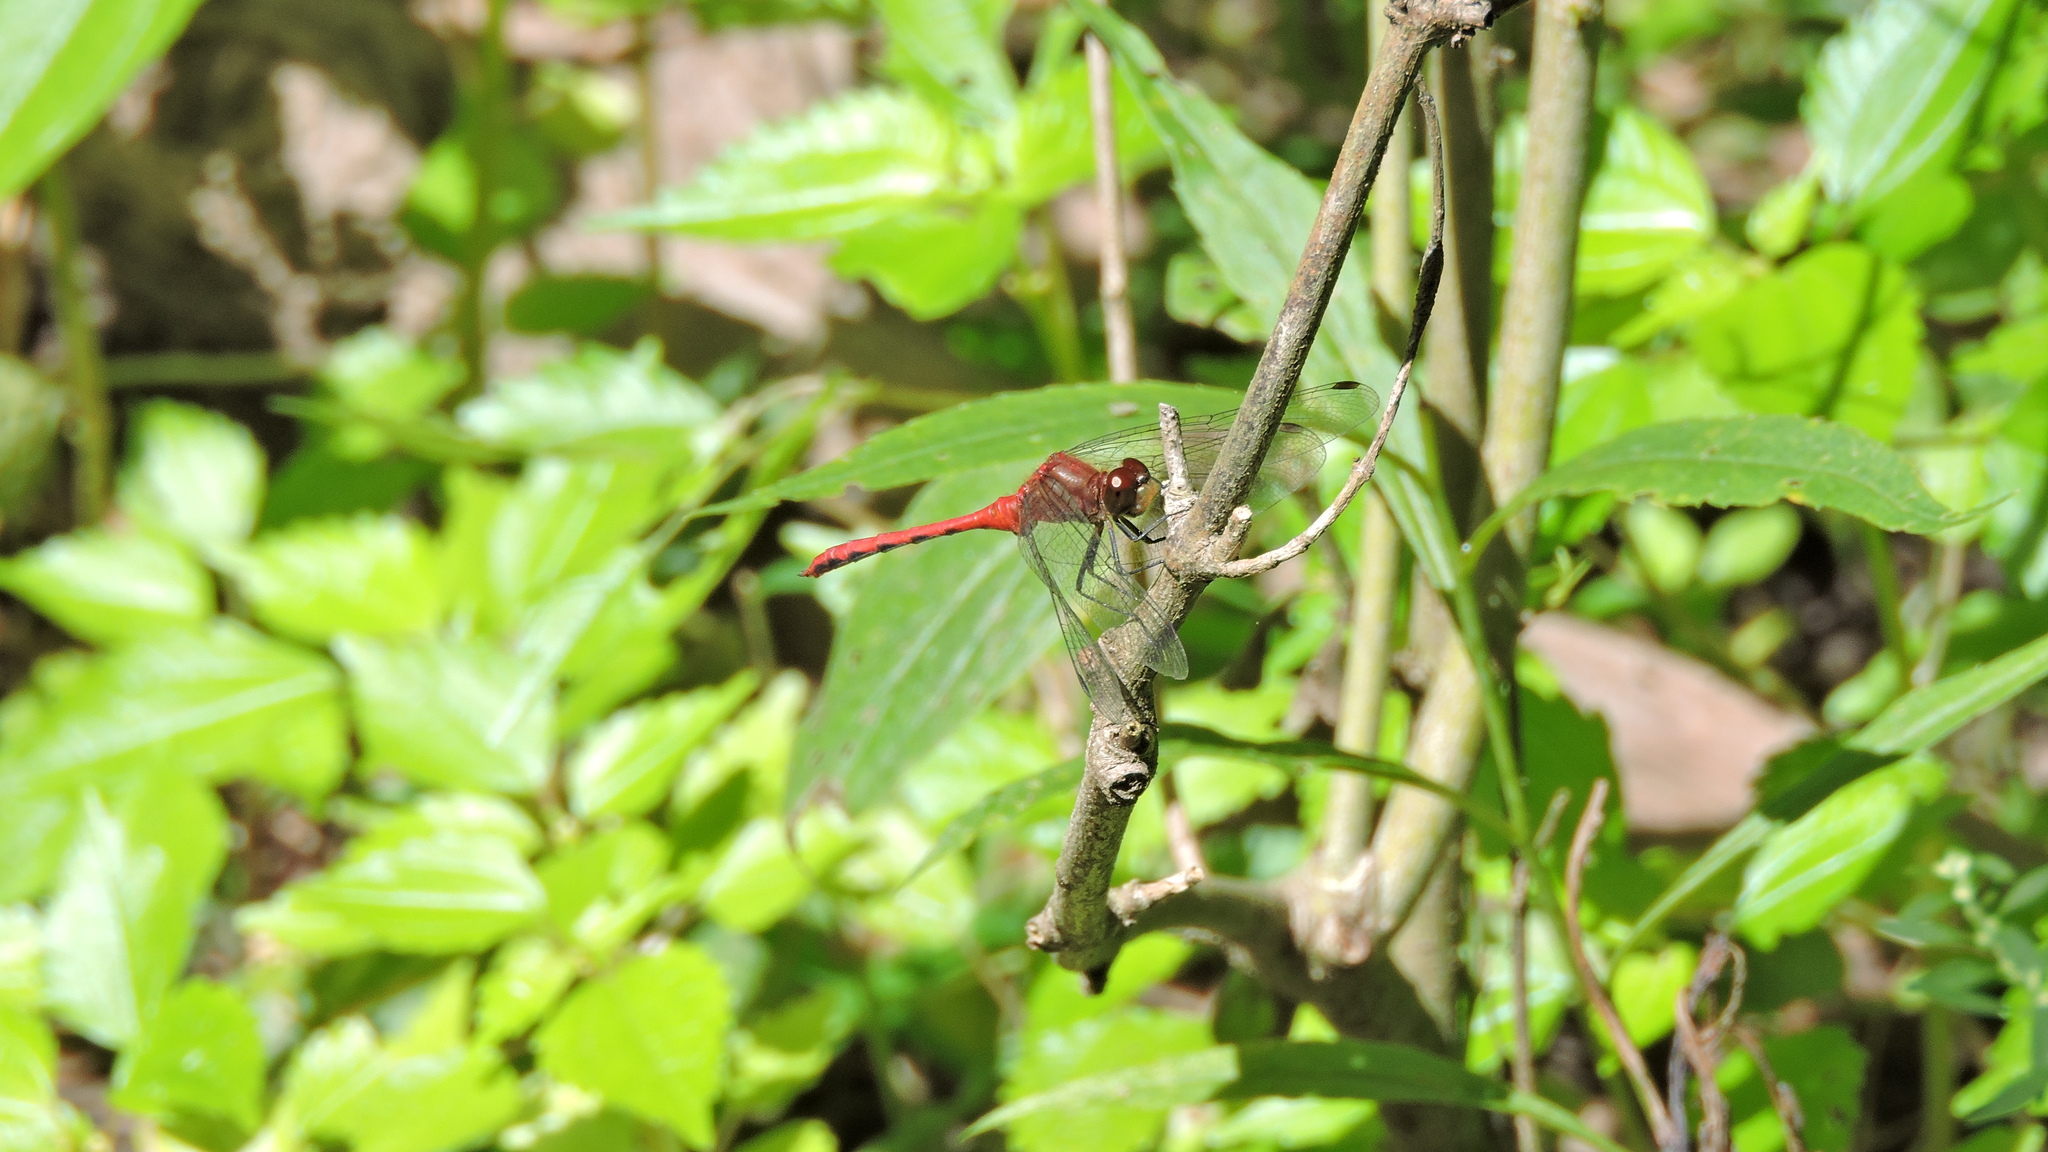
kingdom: Animalia
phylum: Arthropoda
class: Insecta
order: Odonata
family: Libellulidae
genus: Sympetrum
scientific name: Sympetrum
